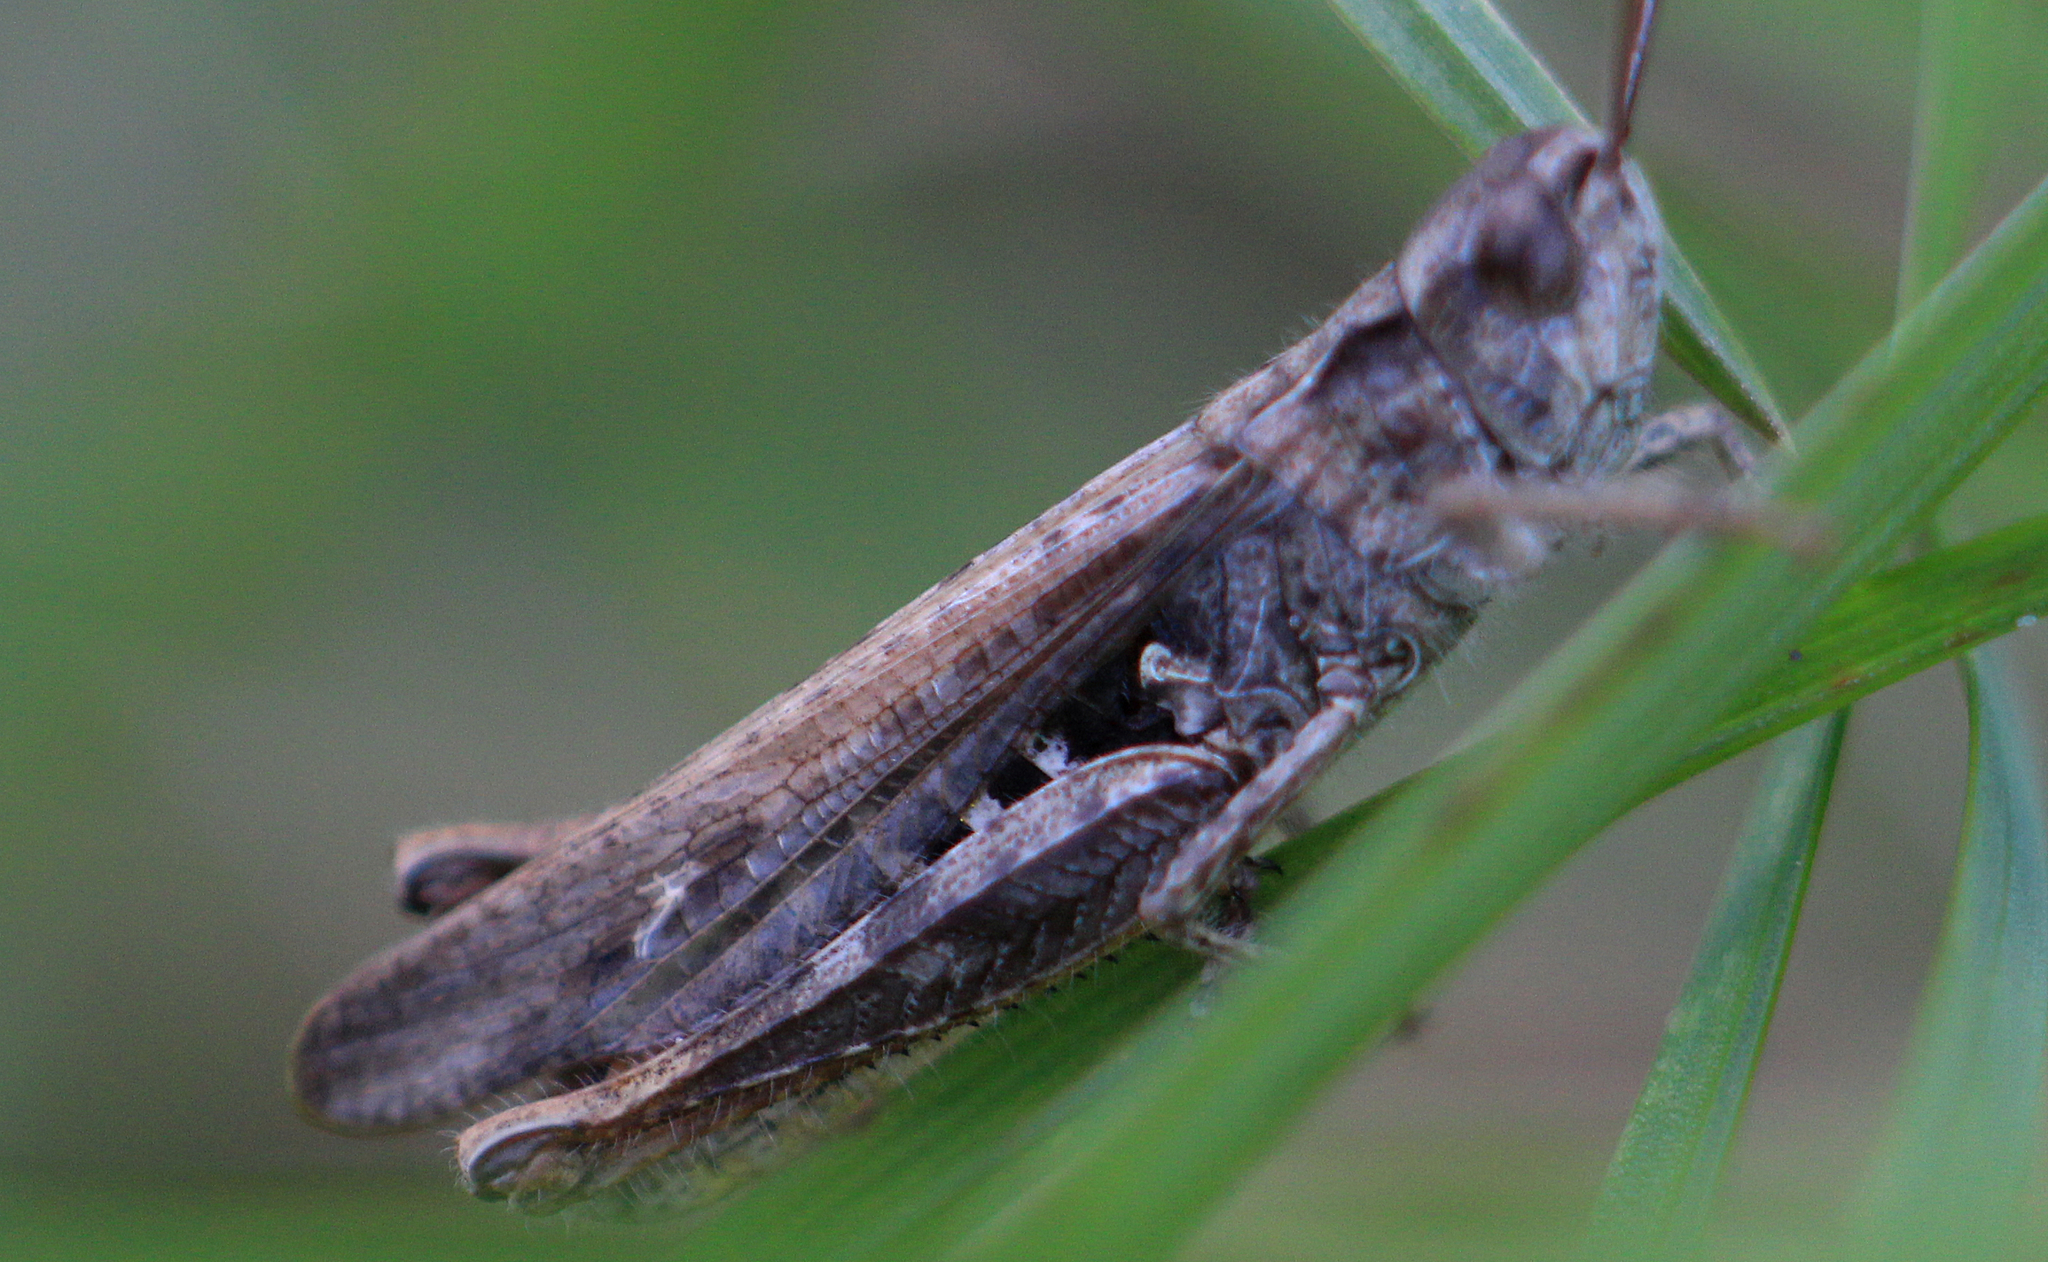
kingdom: Animalia
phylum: Arthropoda
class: Insecta
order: Orthoptera
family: Acrididae
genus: Chorthippus
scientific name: Chorthippus mollis
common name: Lesser field grasshopper
